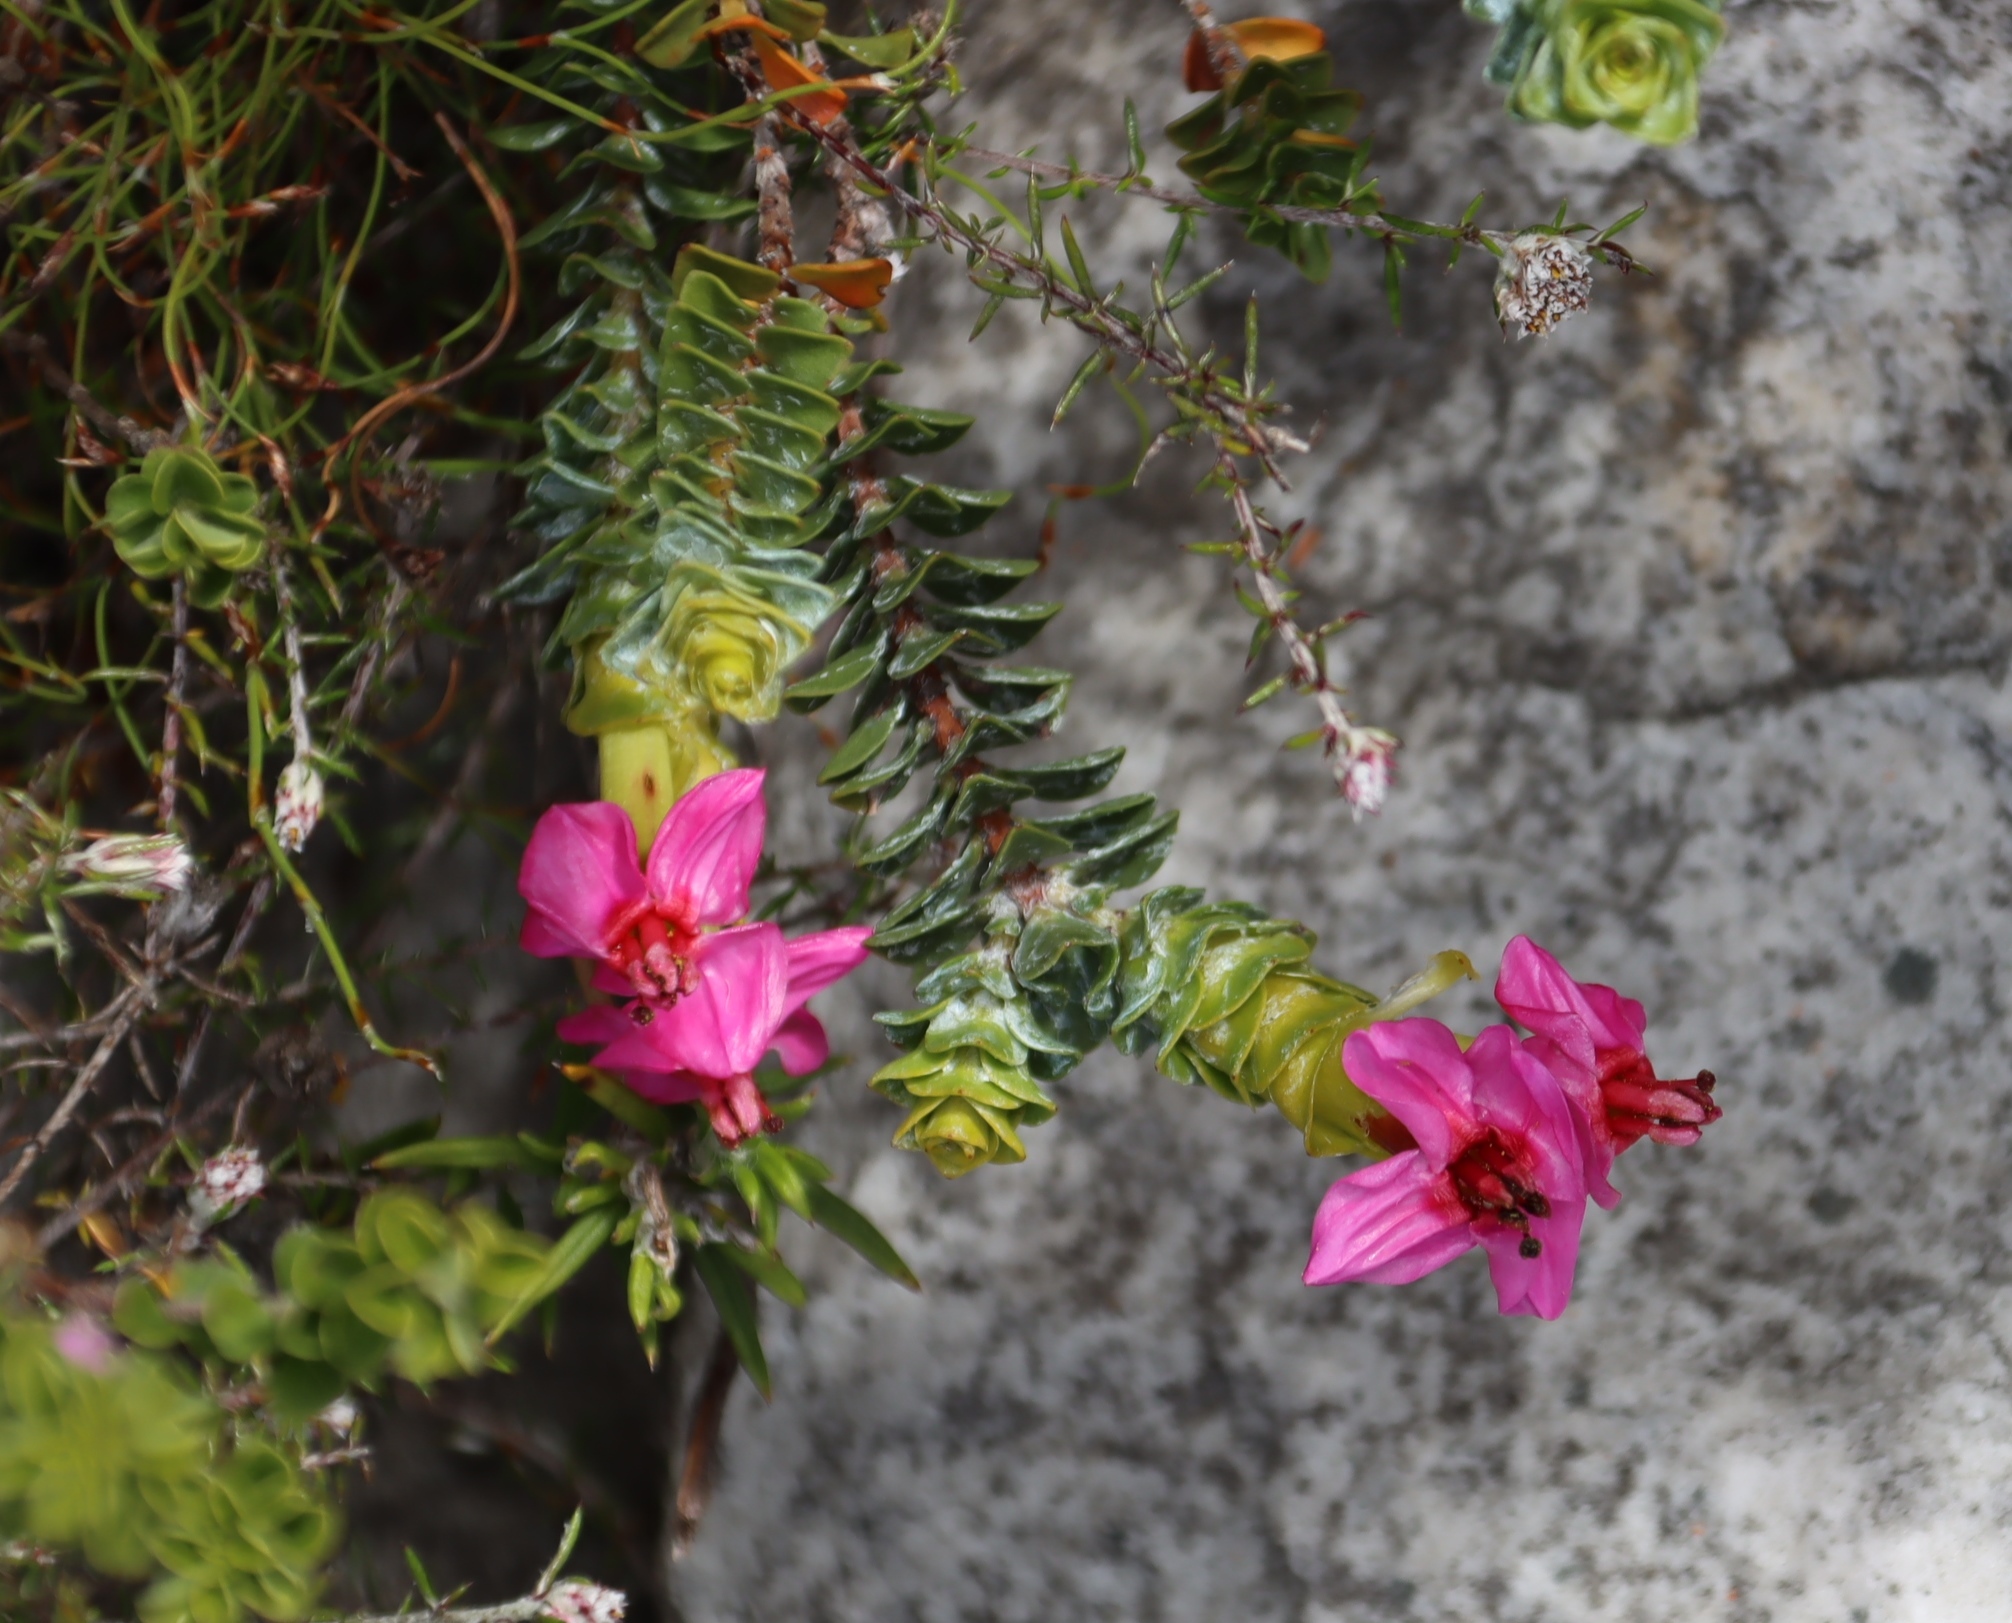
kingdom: Plantae
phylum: Tracheophyta
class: Magnoliopsida
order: Myrtales
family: Penaeaceae
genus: Saltera
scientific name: Saltera sarcocolla
